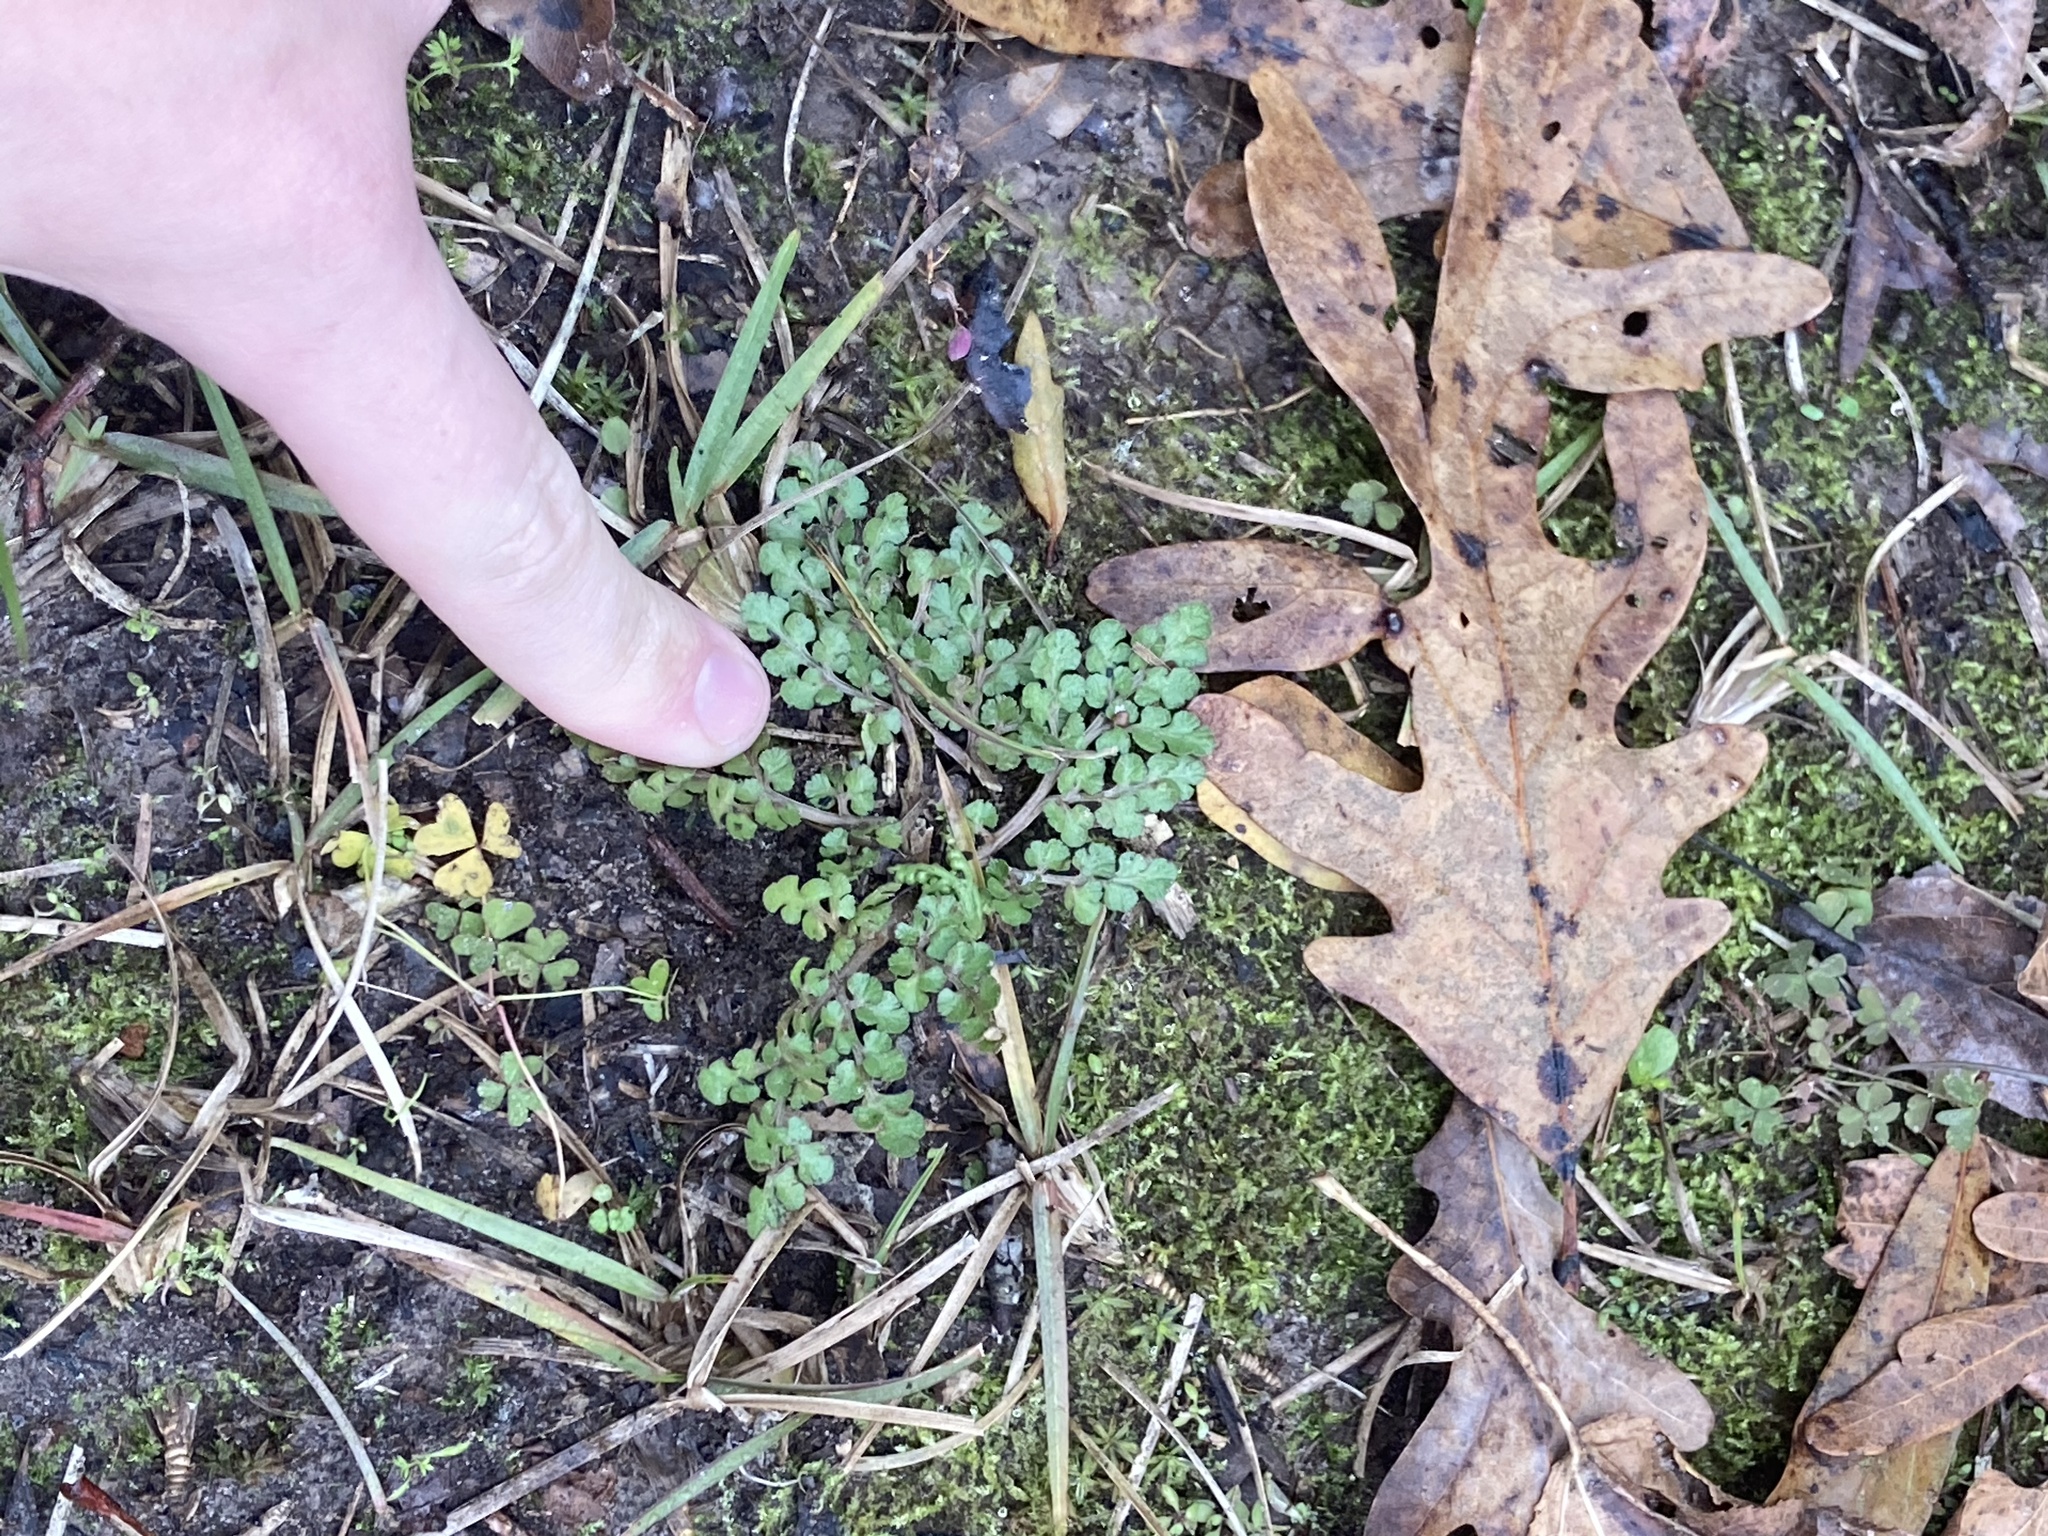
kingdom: Plantae
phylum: Tracheophyta
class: Polypodiopsida
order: Ophioglossales
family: Ophioglossaceae
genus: Sceptridium
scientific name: Sceptridium lunarioides
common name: Prostrate grapefern
